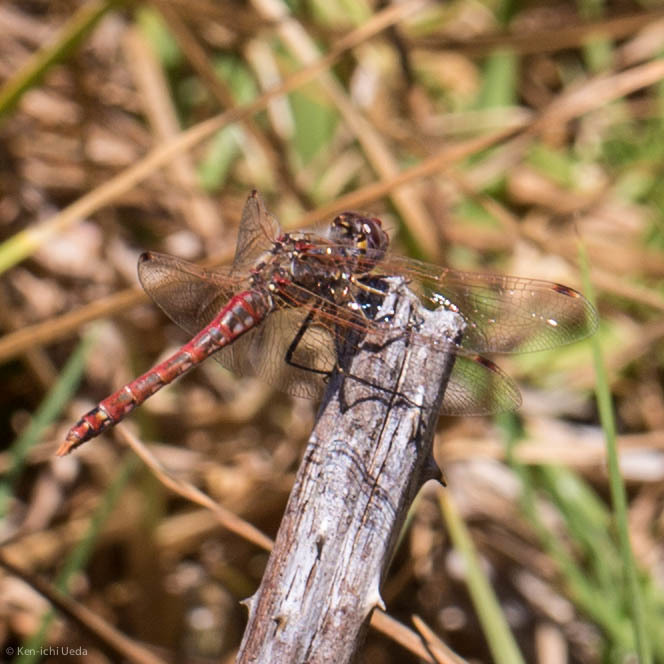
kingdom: Animalia
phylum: Arthropoda
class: Insecta
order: Odonata
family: Libellulidae
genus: Sympetrum
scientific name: Sympetrum corruptum
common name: Variegated meadowhawk
